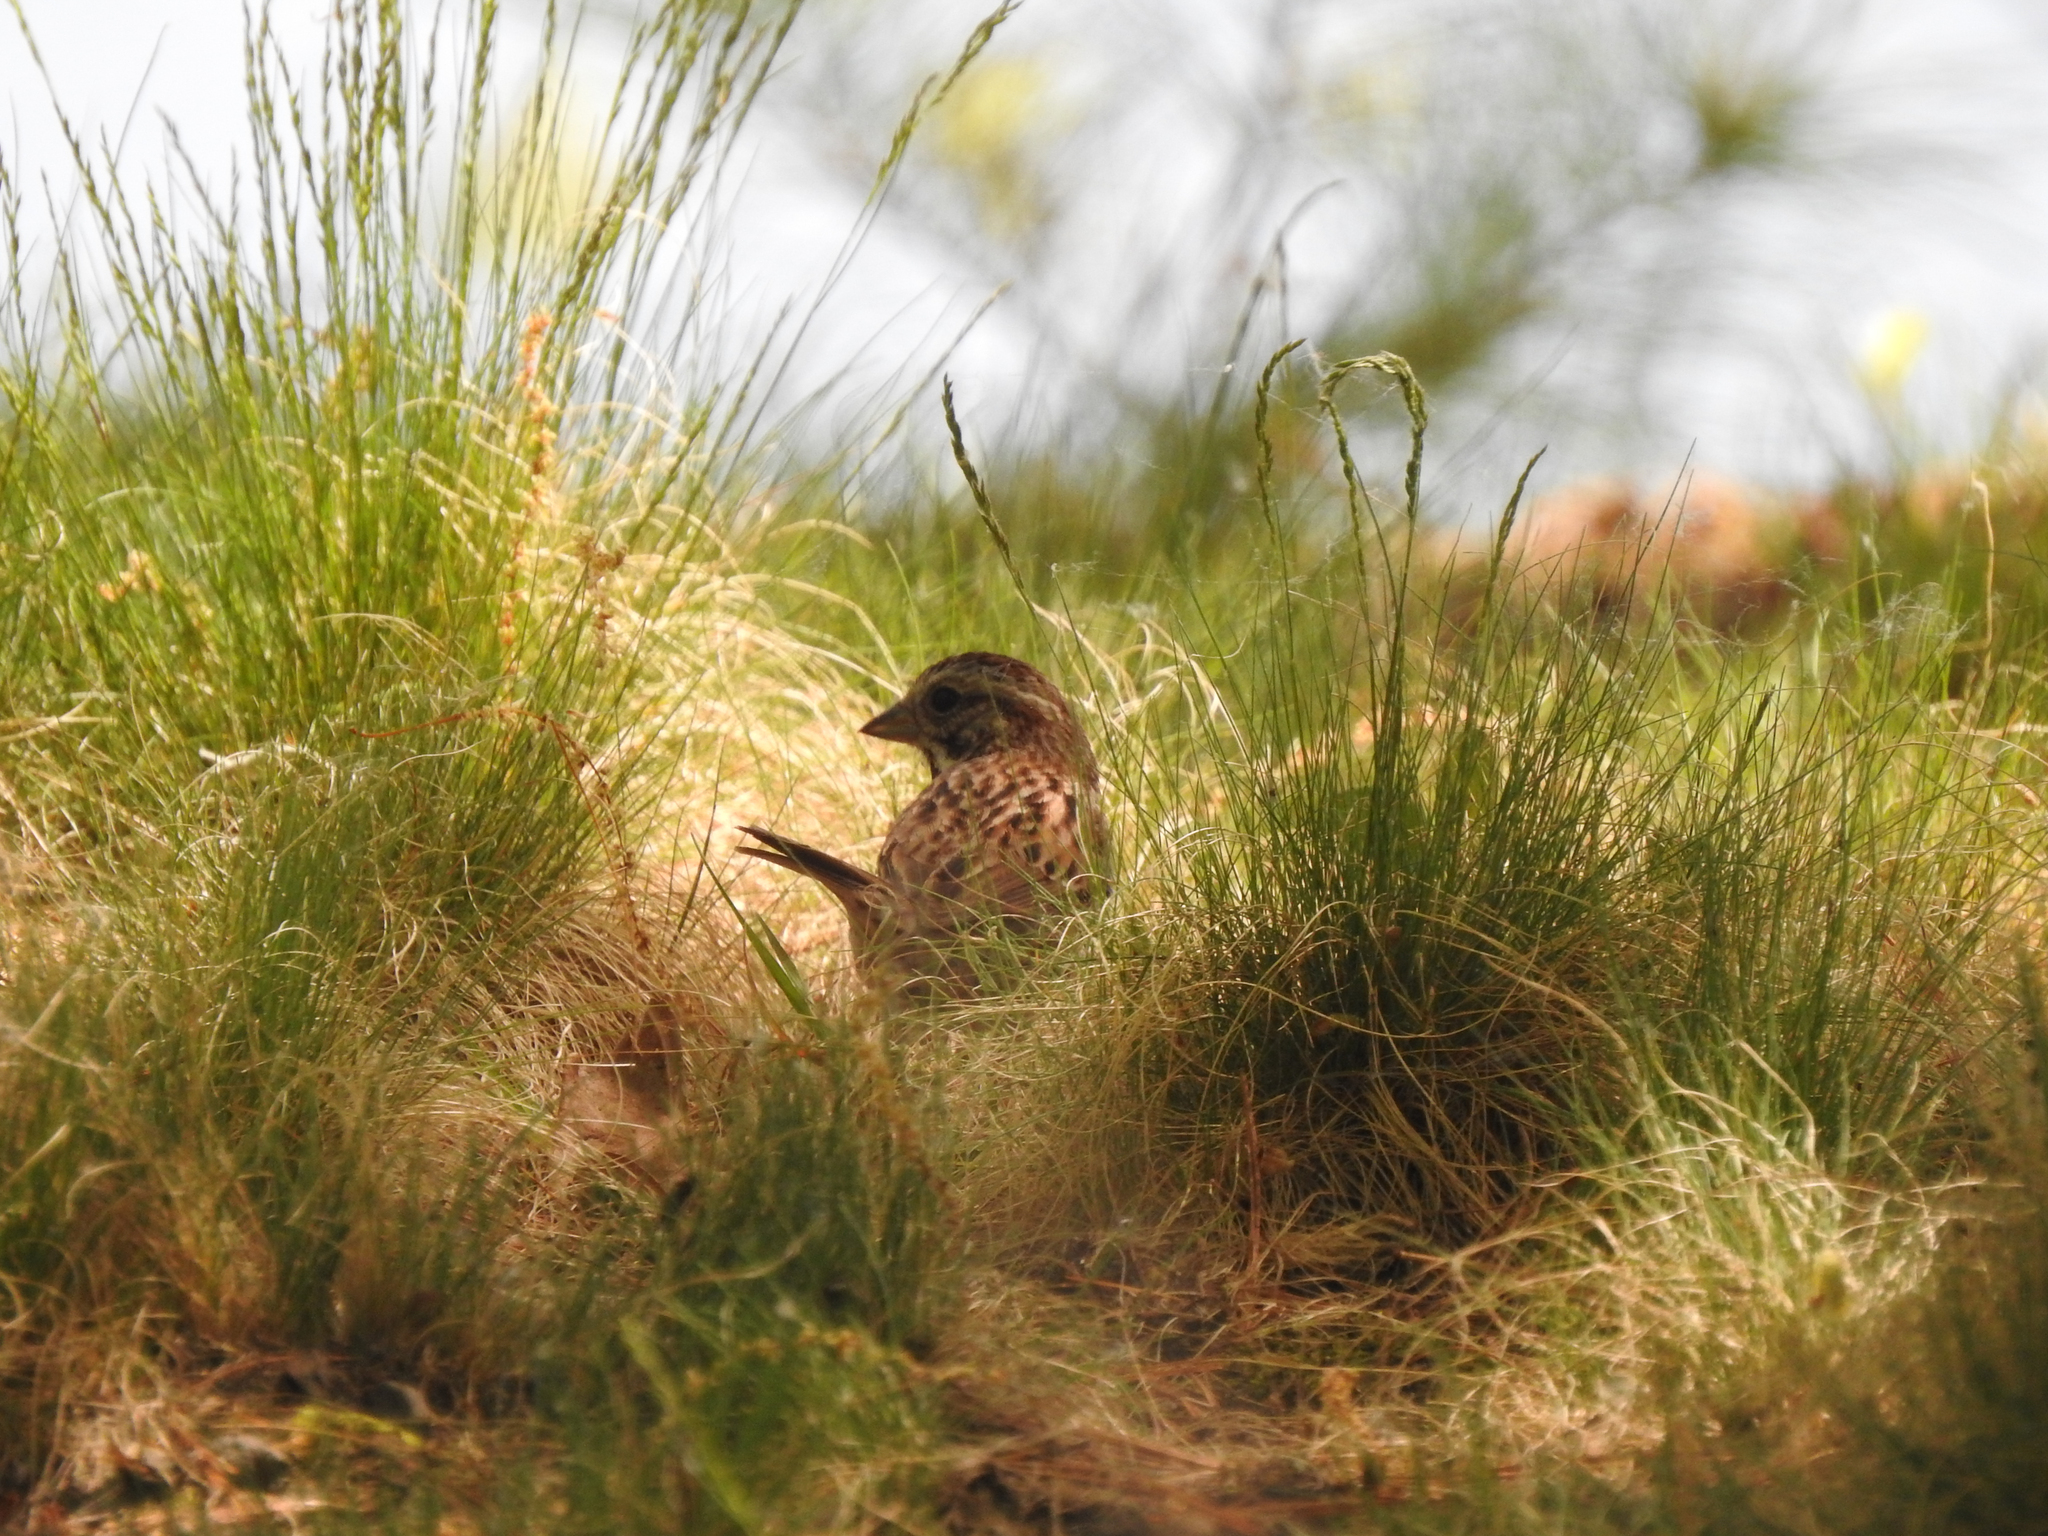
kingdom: Animalia
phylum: Chordata
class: Aves
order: Passeriformes
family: Passerellidae
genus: Melospiza
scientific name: Melospiza melodia
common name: Song sparrow
